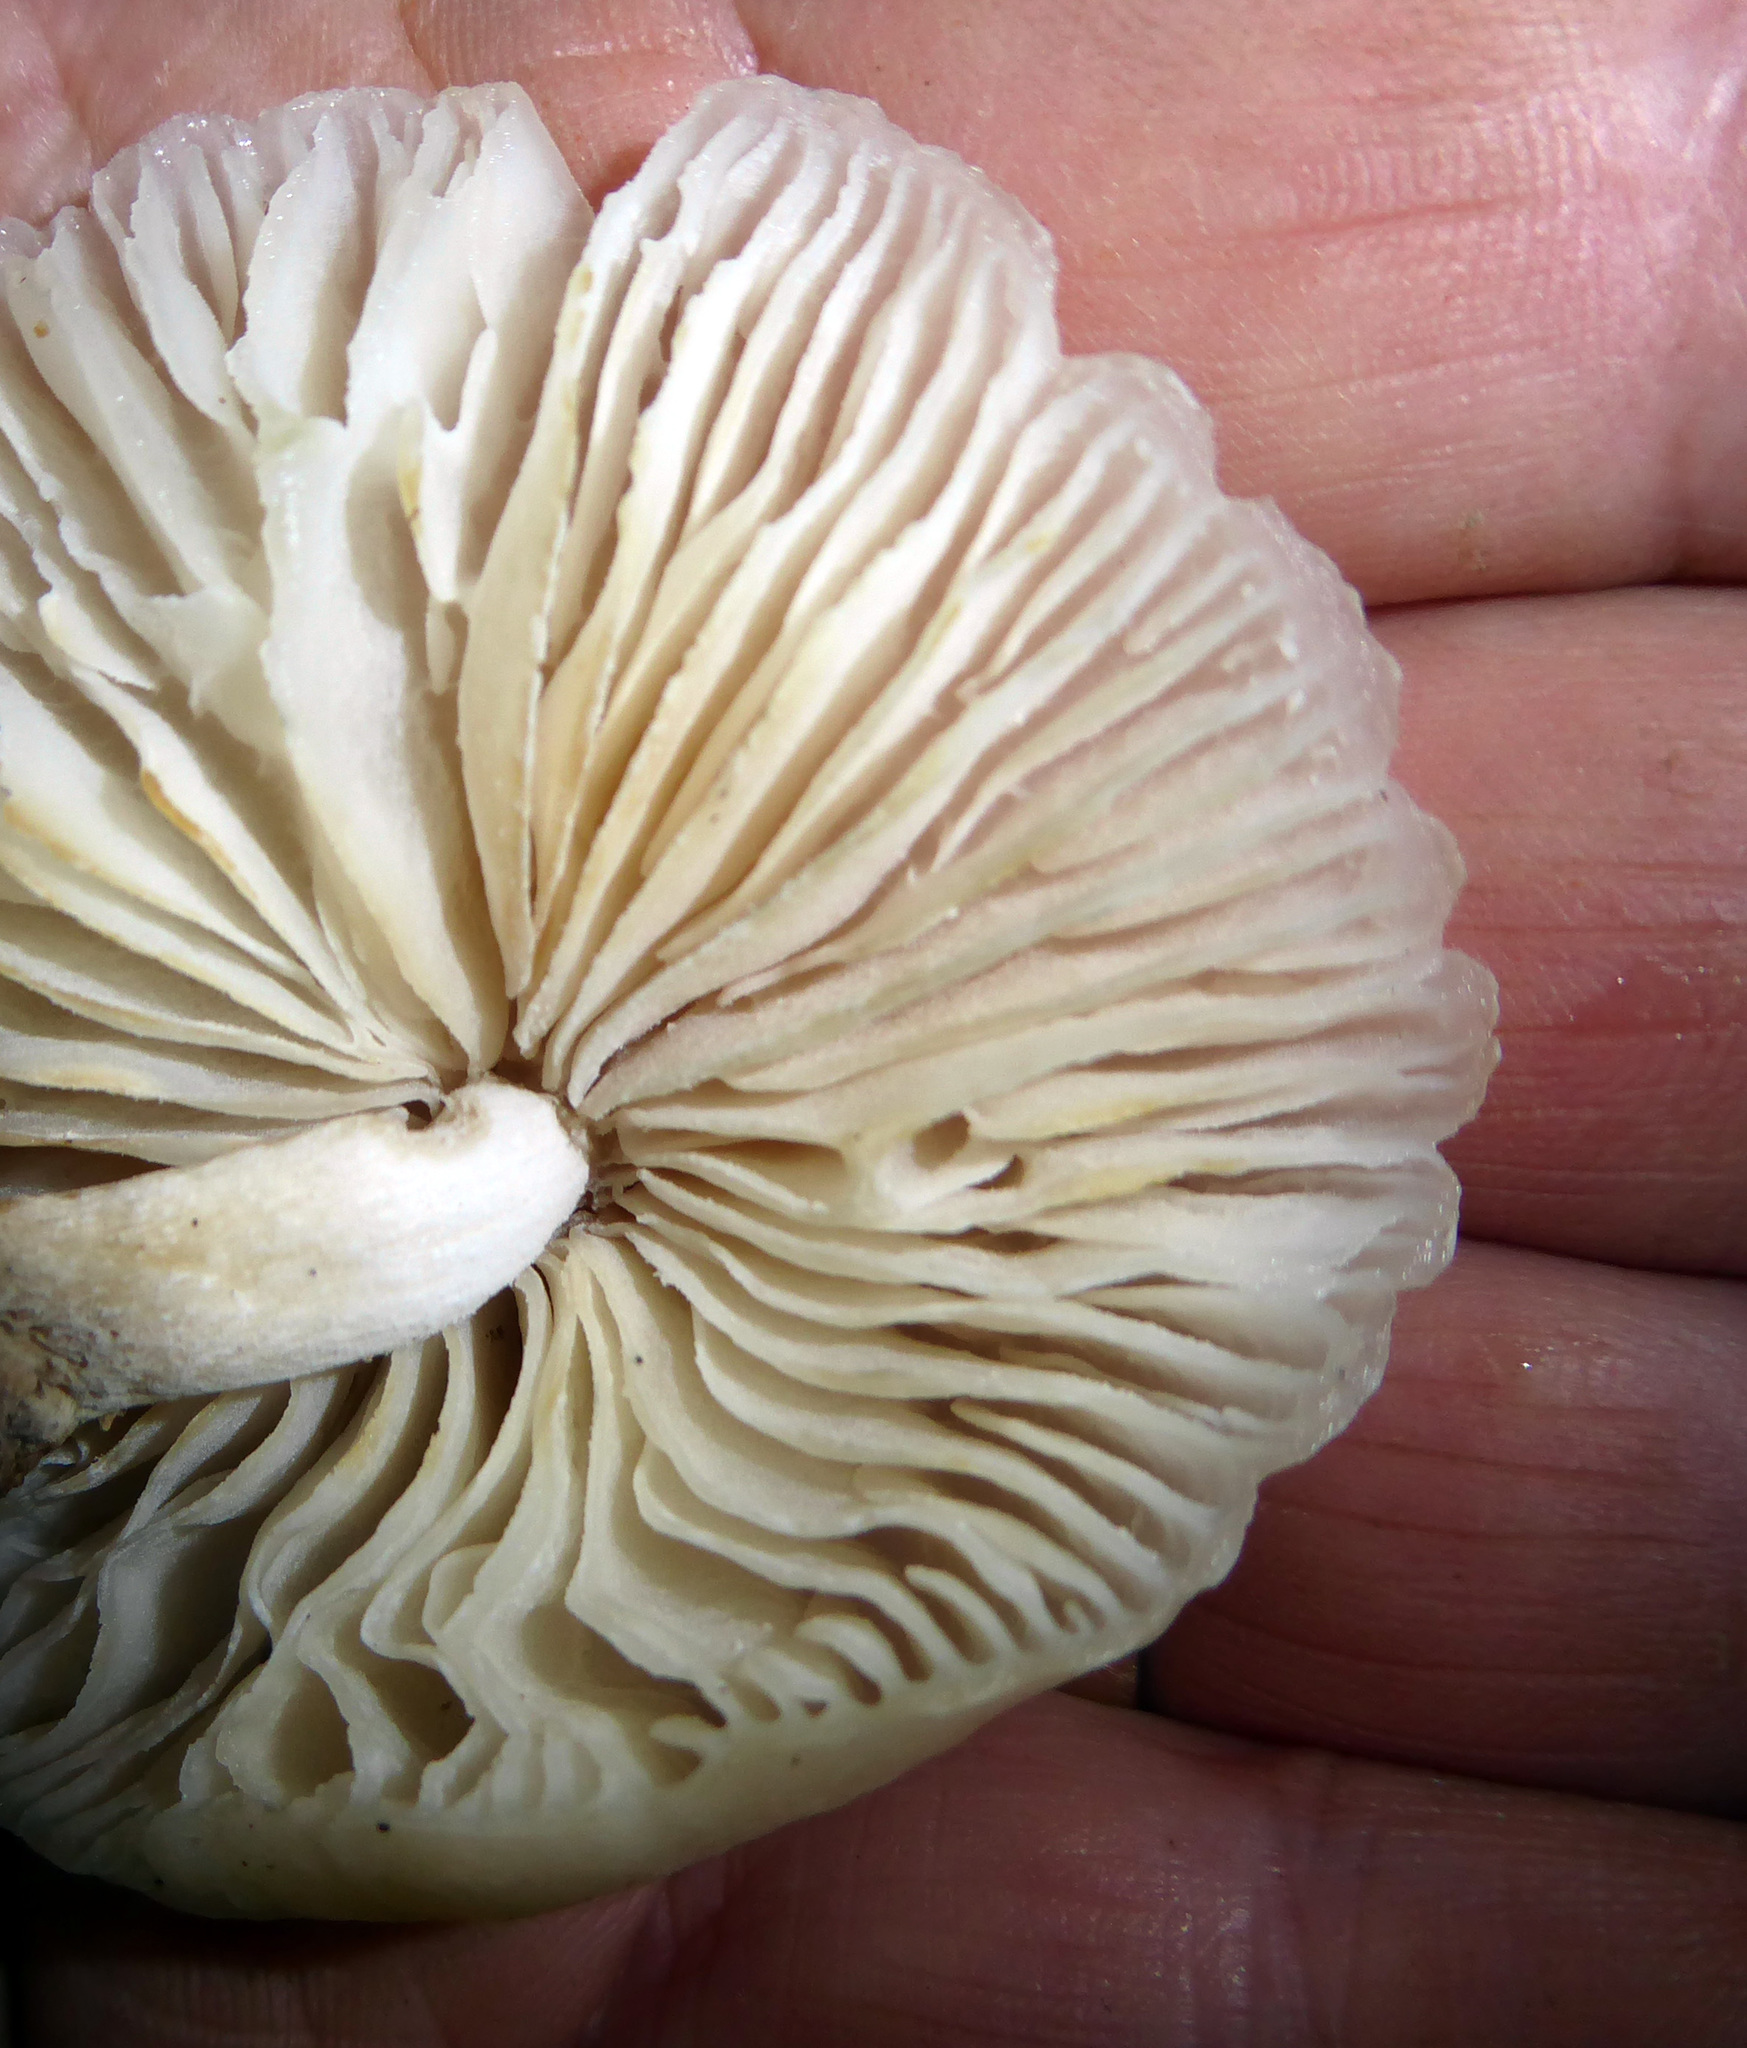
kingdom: Fungi
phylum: Basidiomycota
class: Agaricomycetes
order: Agaricales
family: Physalacriaceae
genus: Oudemansiella
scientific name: Oudemansiella australis
